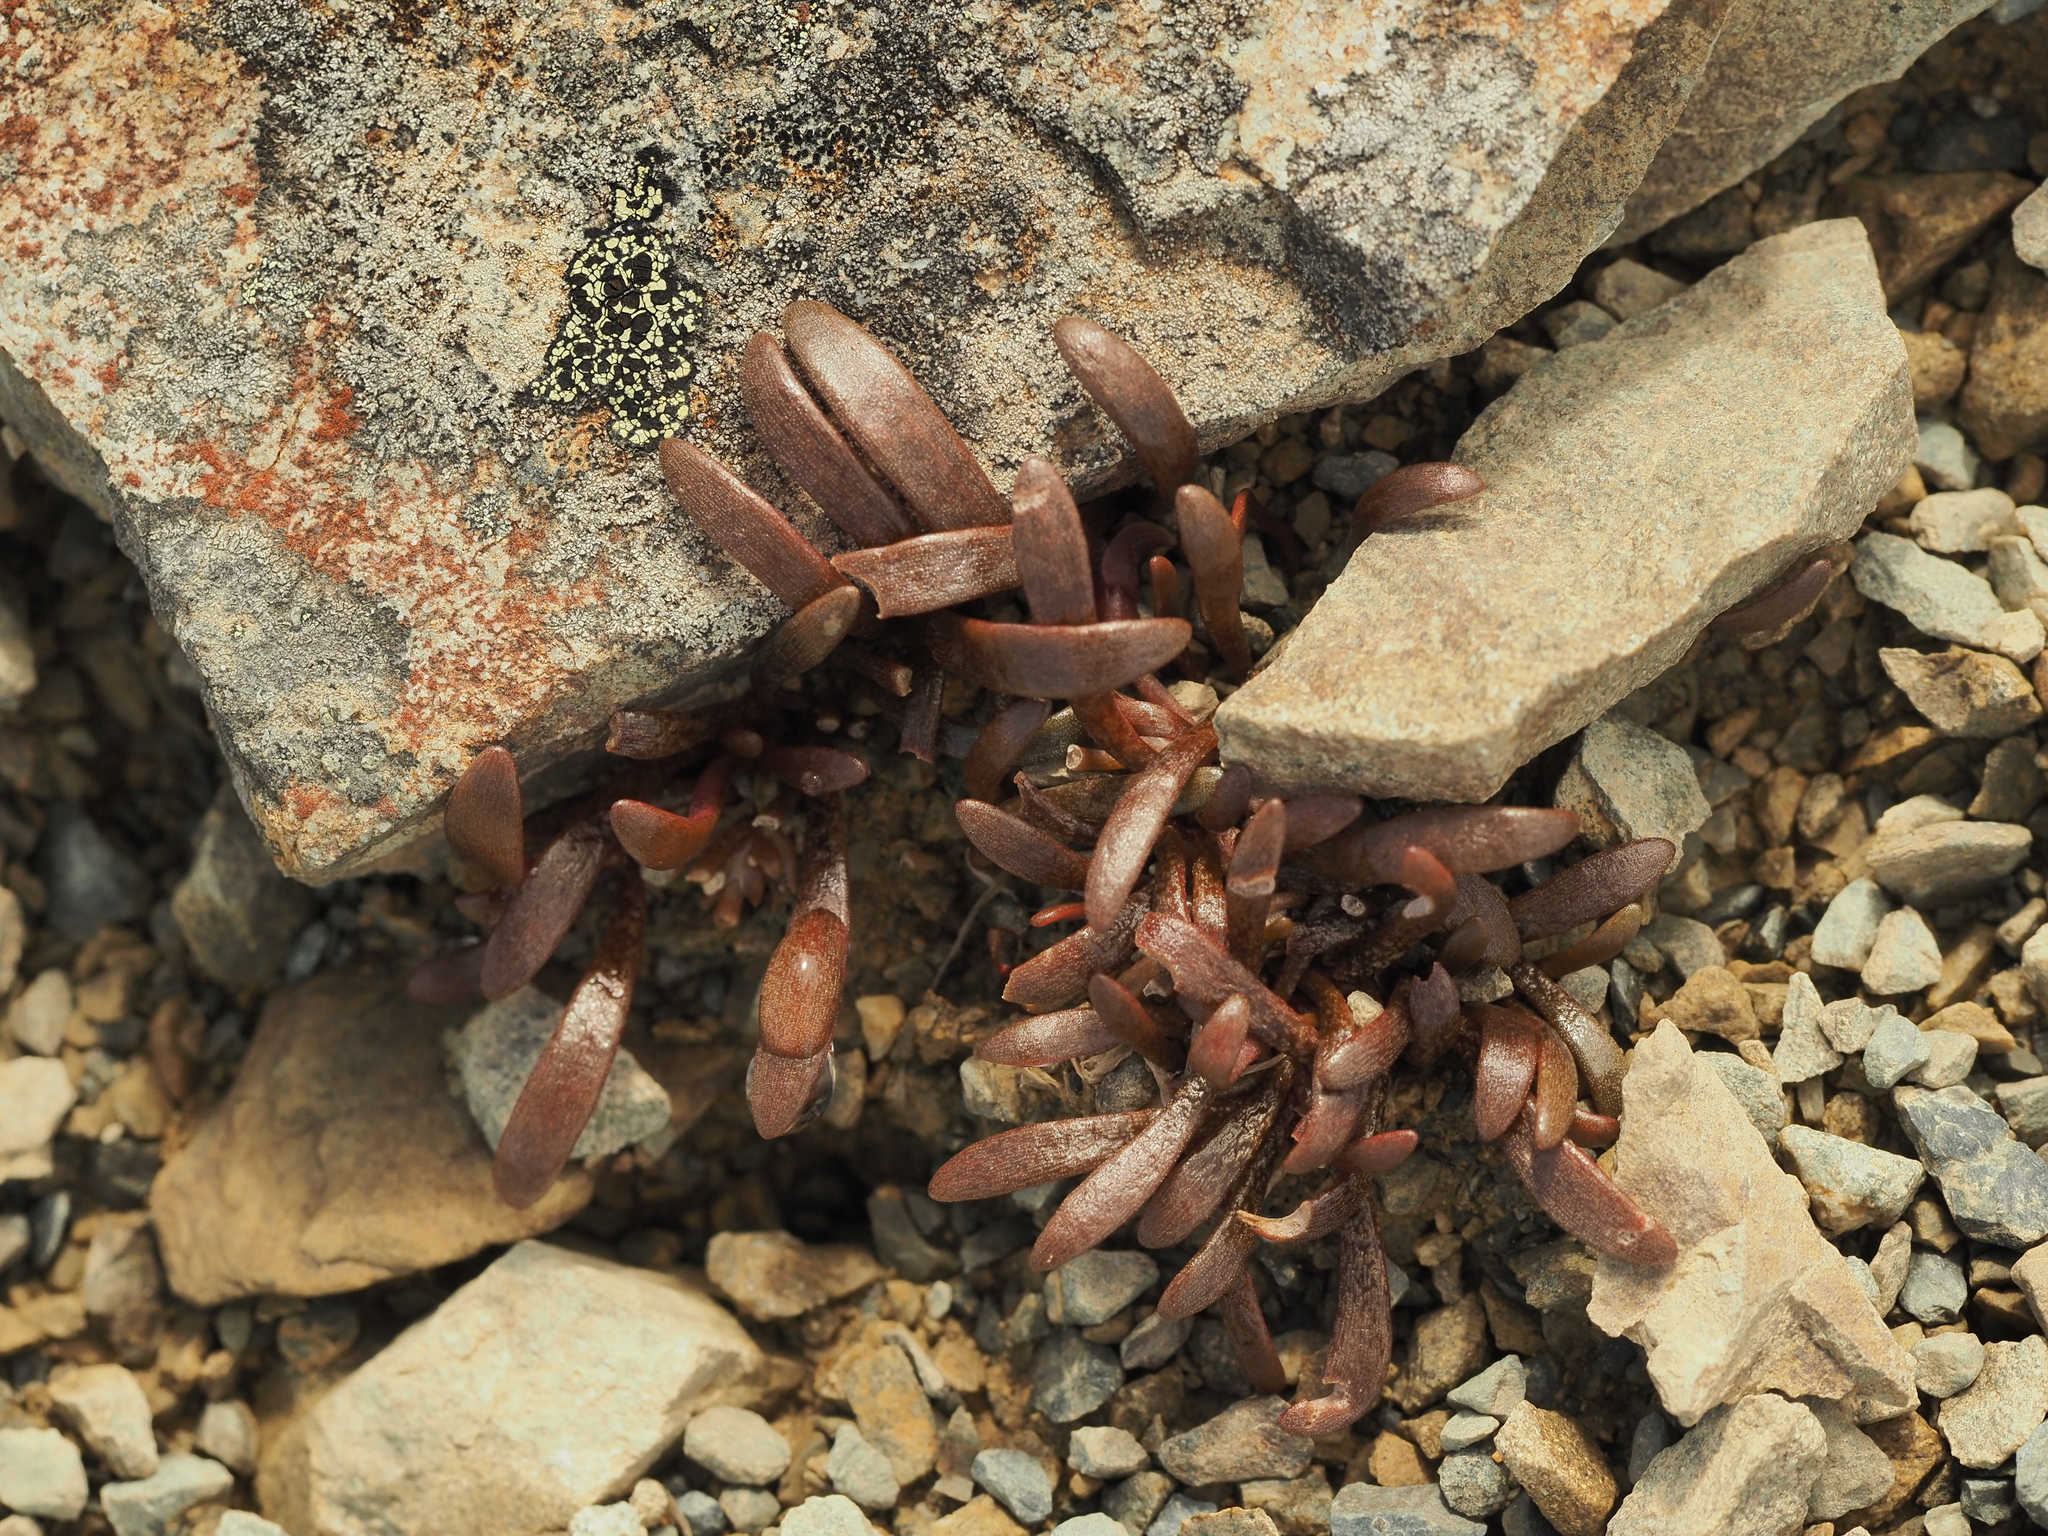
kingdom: Plantae
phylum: Tracheophyta
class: Magnoliopsida
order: Caryophyllales
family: Montiaceae
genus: Montia
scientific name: Montia erythrophylla
